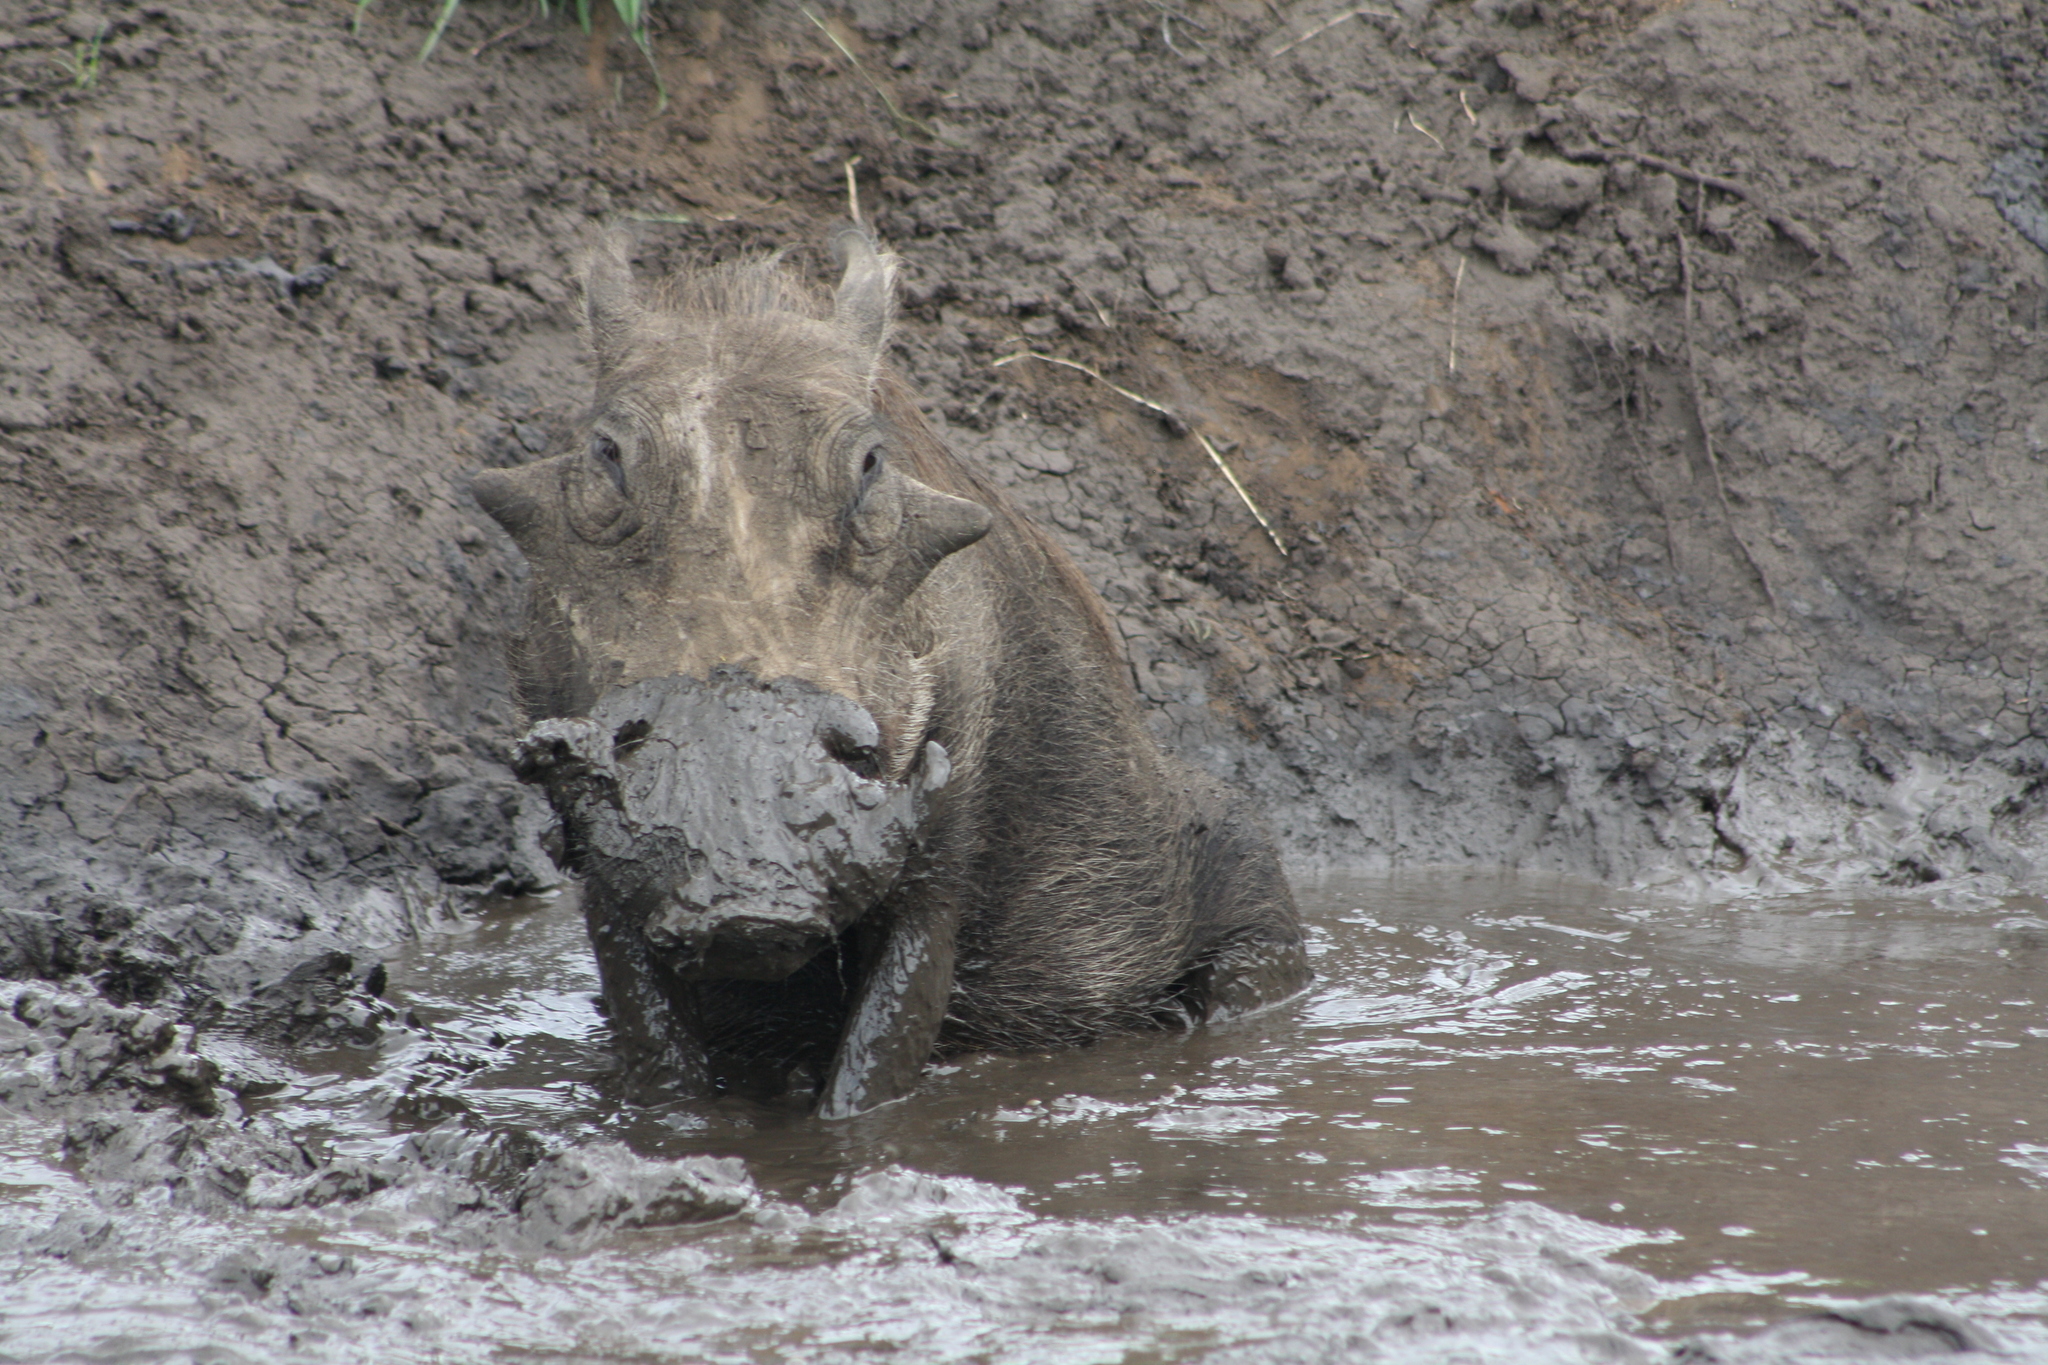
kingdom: Animalia
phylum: Chordata
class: Mammalia
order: Artiodactyla
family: Suidae
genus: Phacochoerus
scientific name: Phacochoerus africanus
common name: Common warthog
